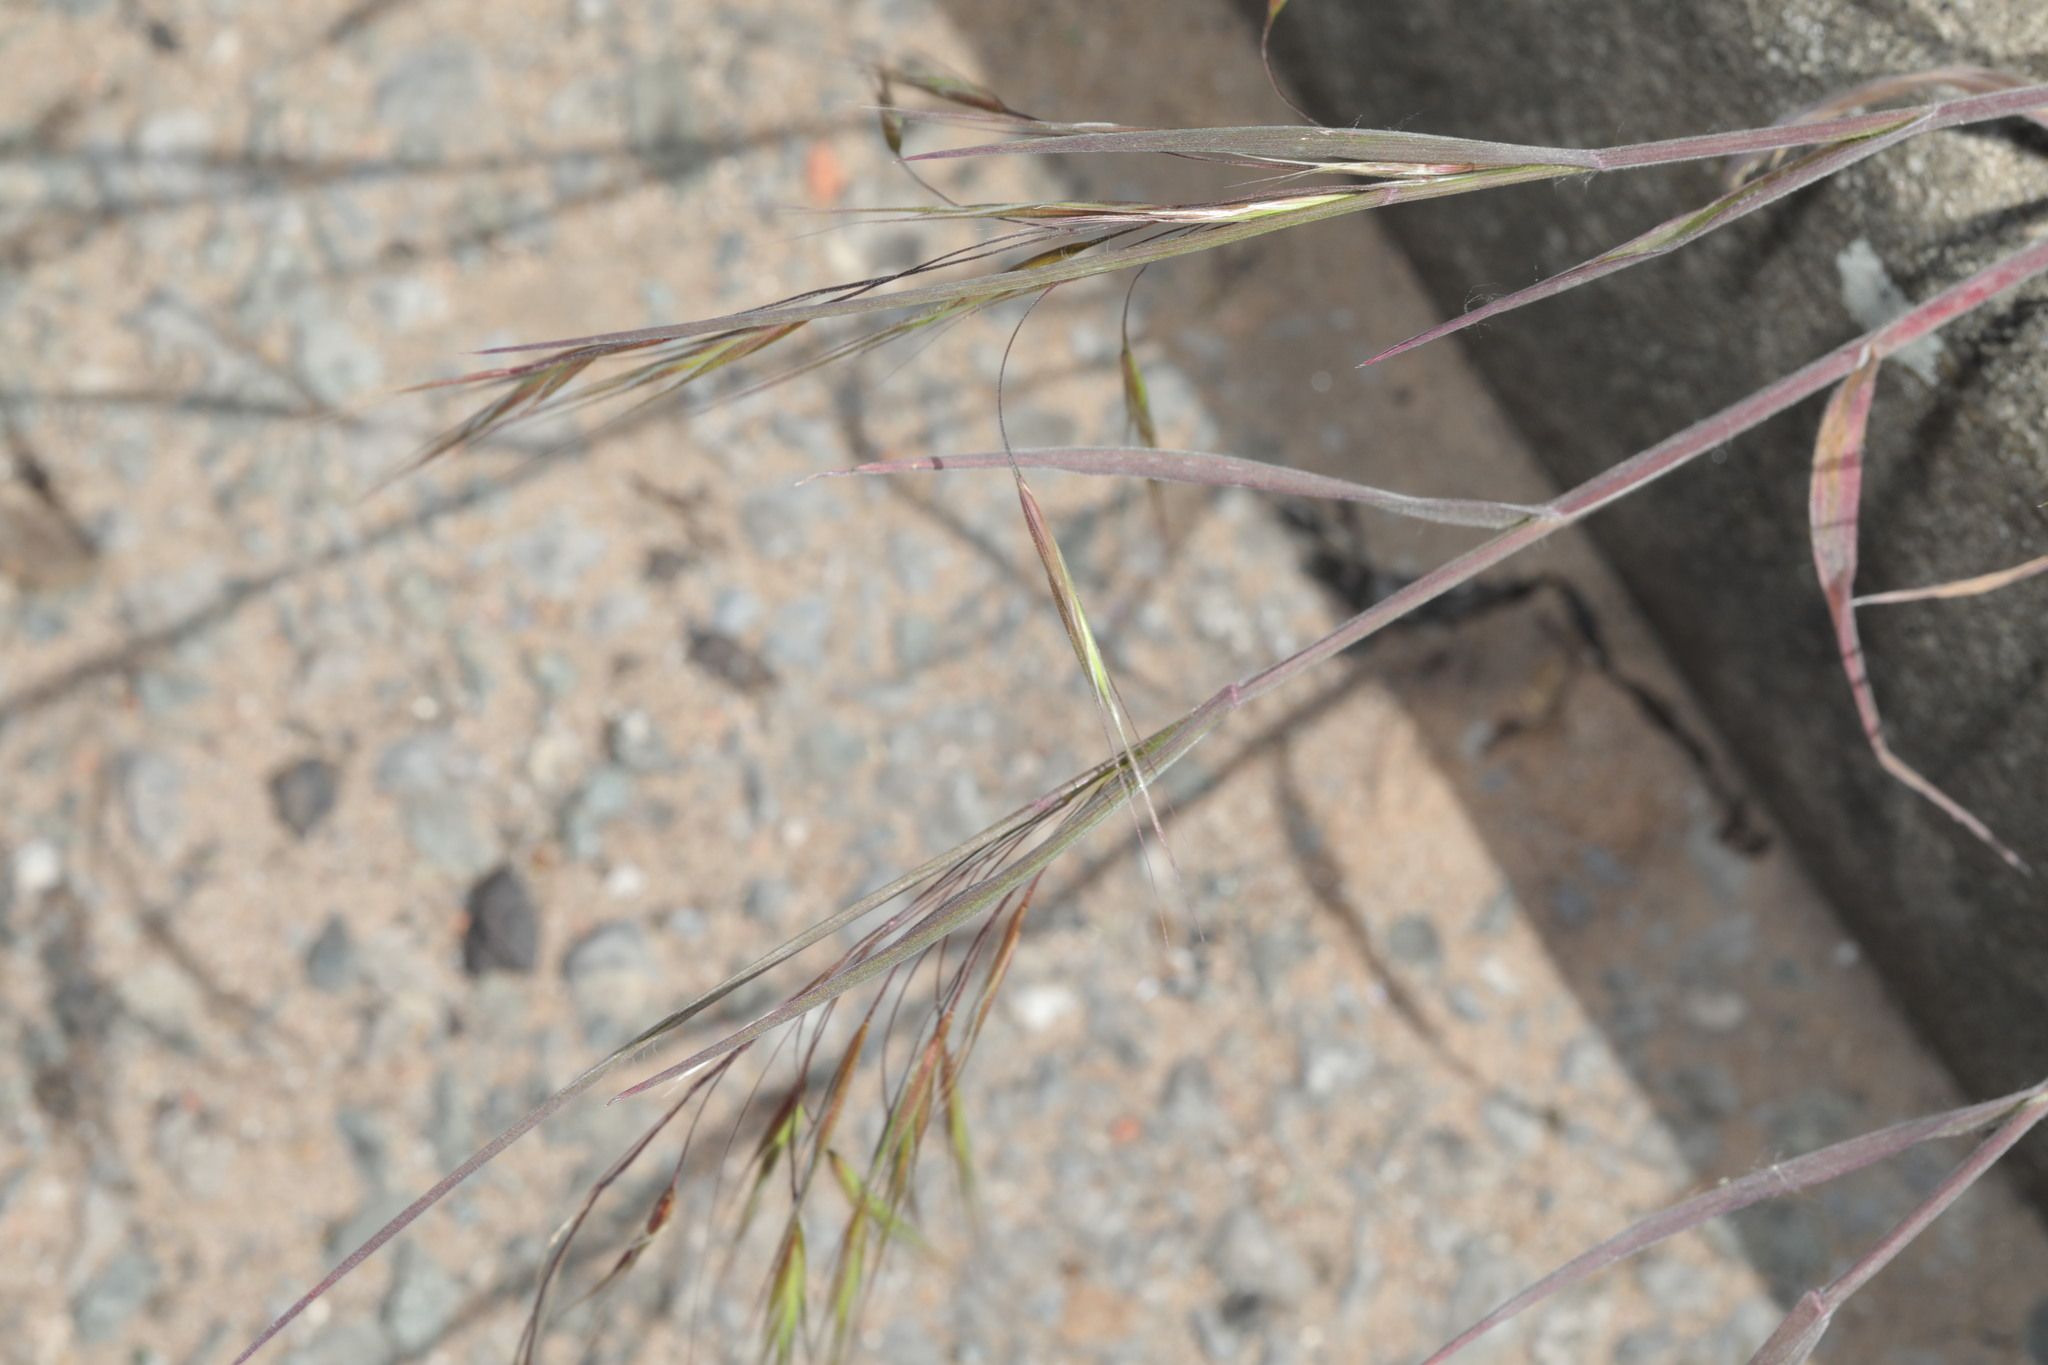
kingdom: Plantae
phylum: Tracheophyta
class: Liliopsida
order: Poales
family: Poaceae
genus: Bromus
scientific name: Bromus sterilis
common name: Poverty brome
